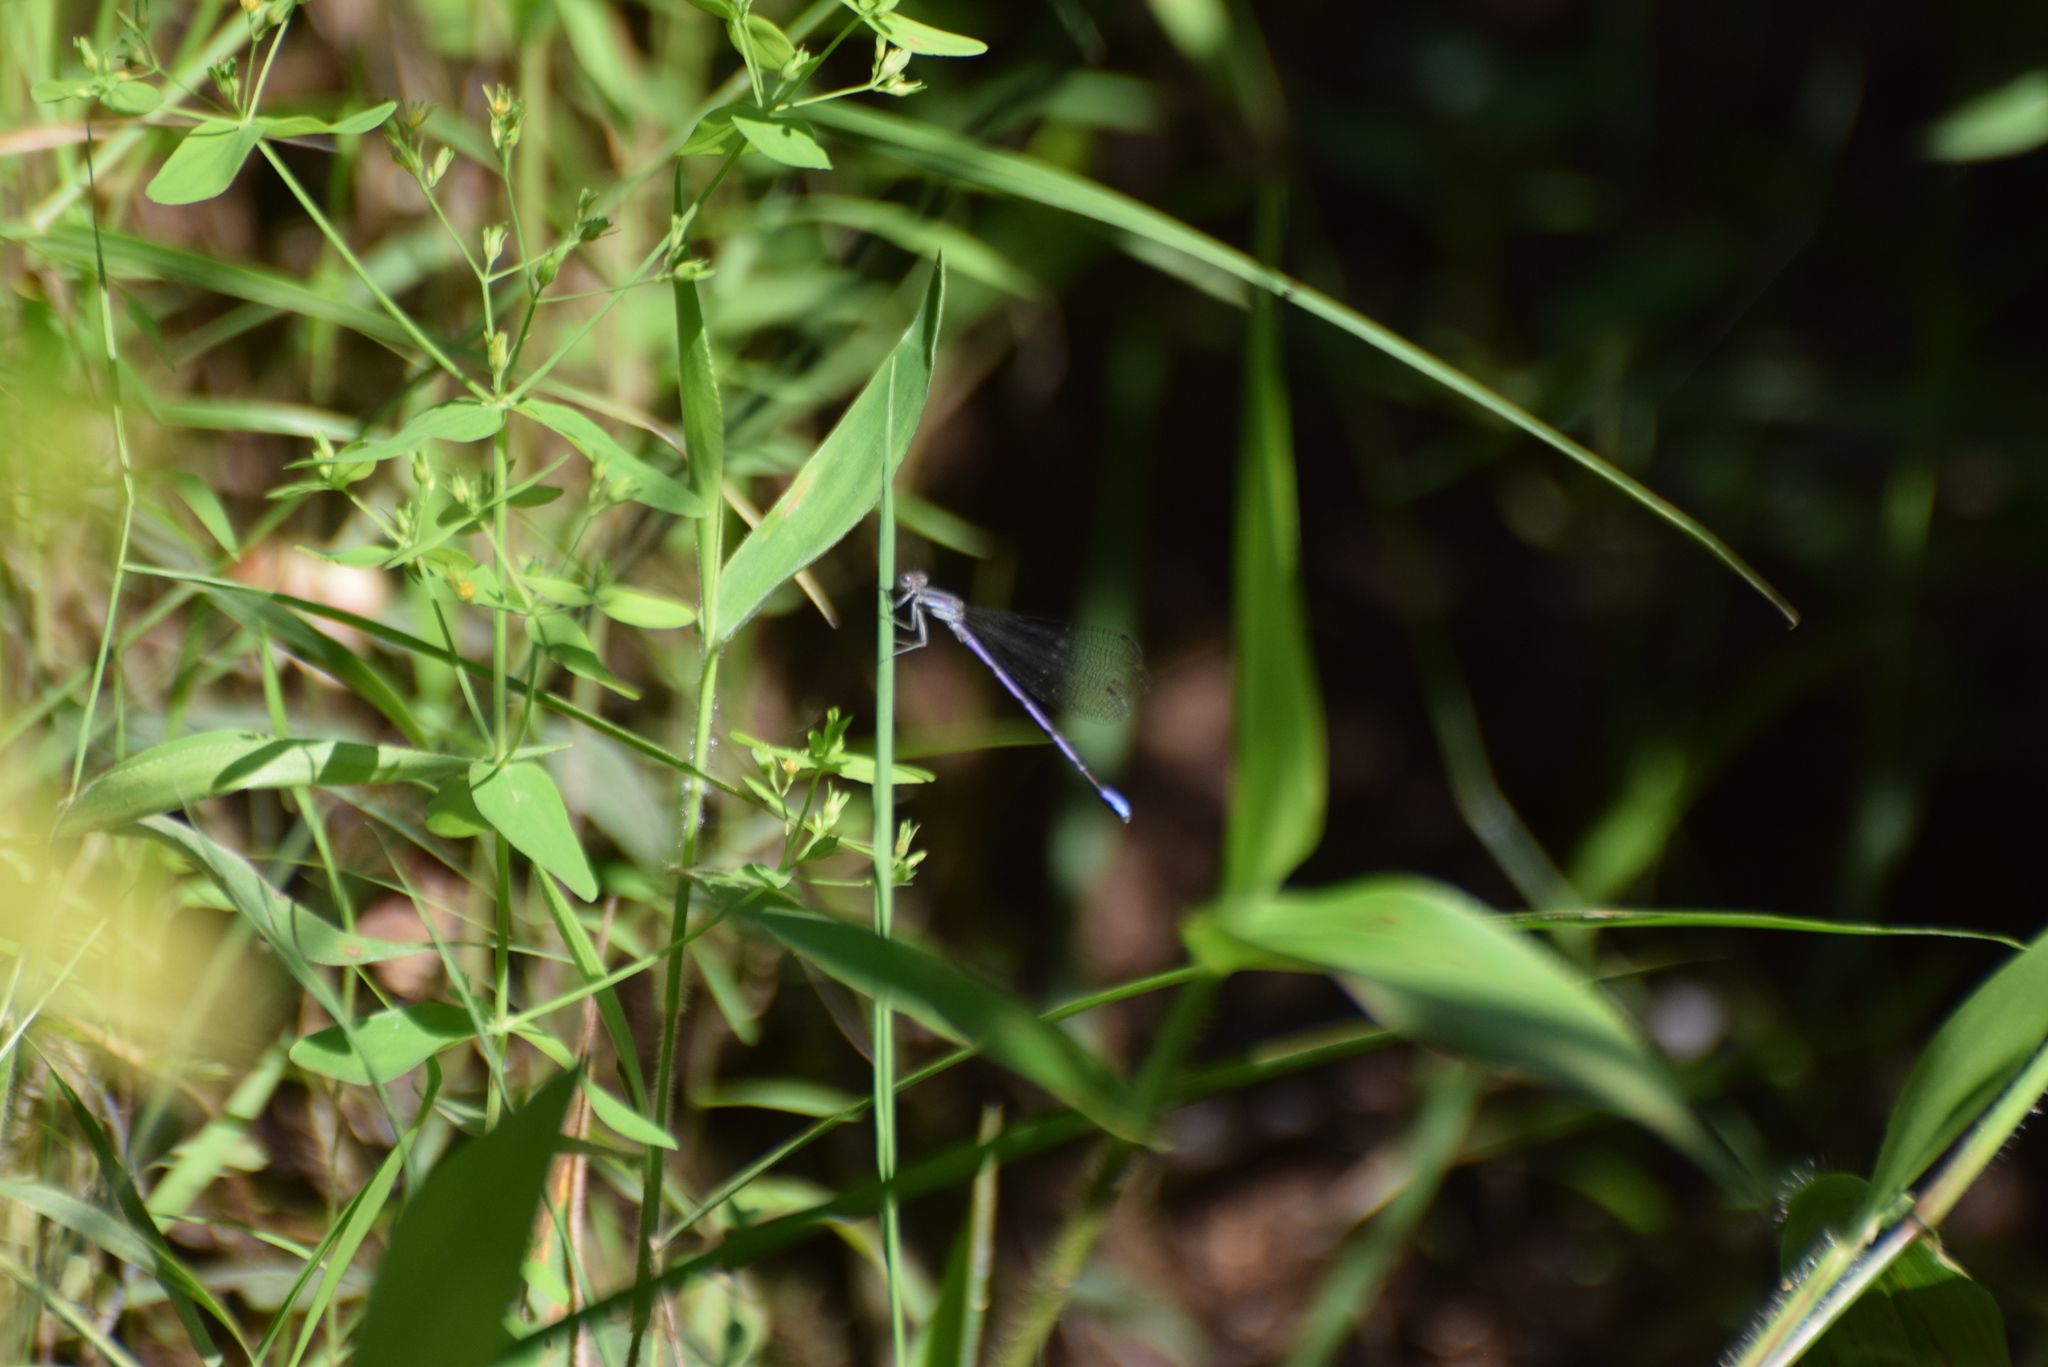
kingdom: Animalia
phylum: Arthropoda
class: Insecta
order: Odonata
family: Coenagrionidae
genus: Argia
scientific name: Argia fumipennis
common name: Variable dancer
